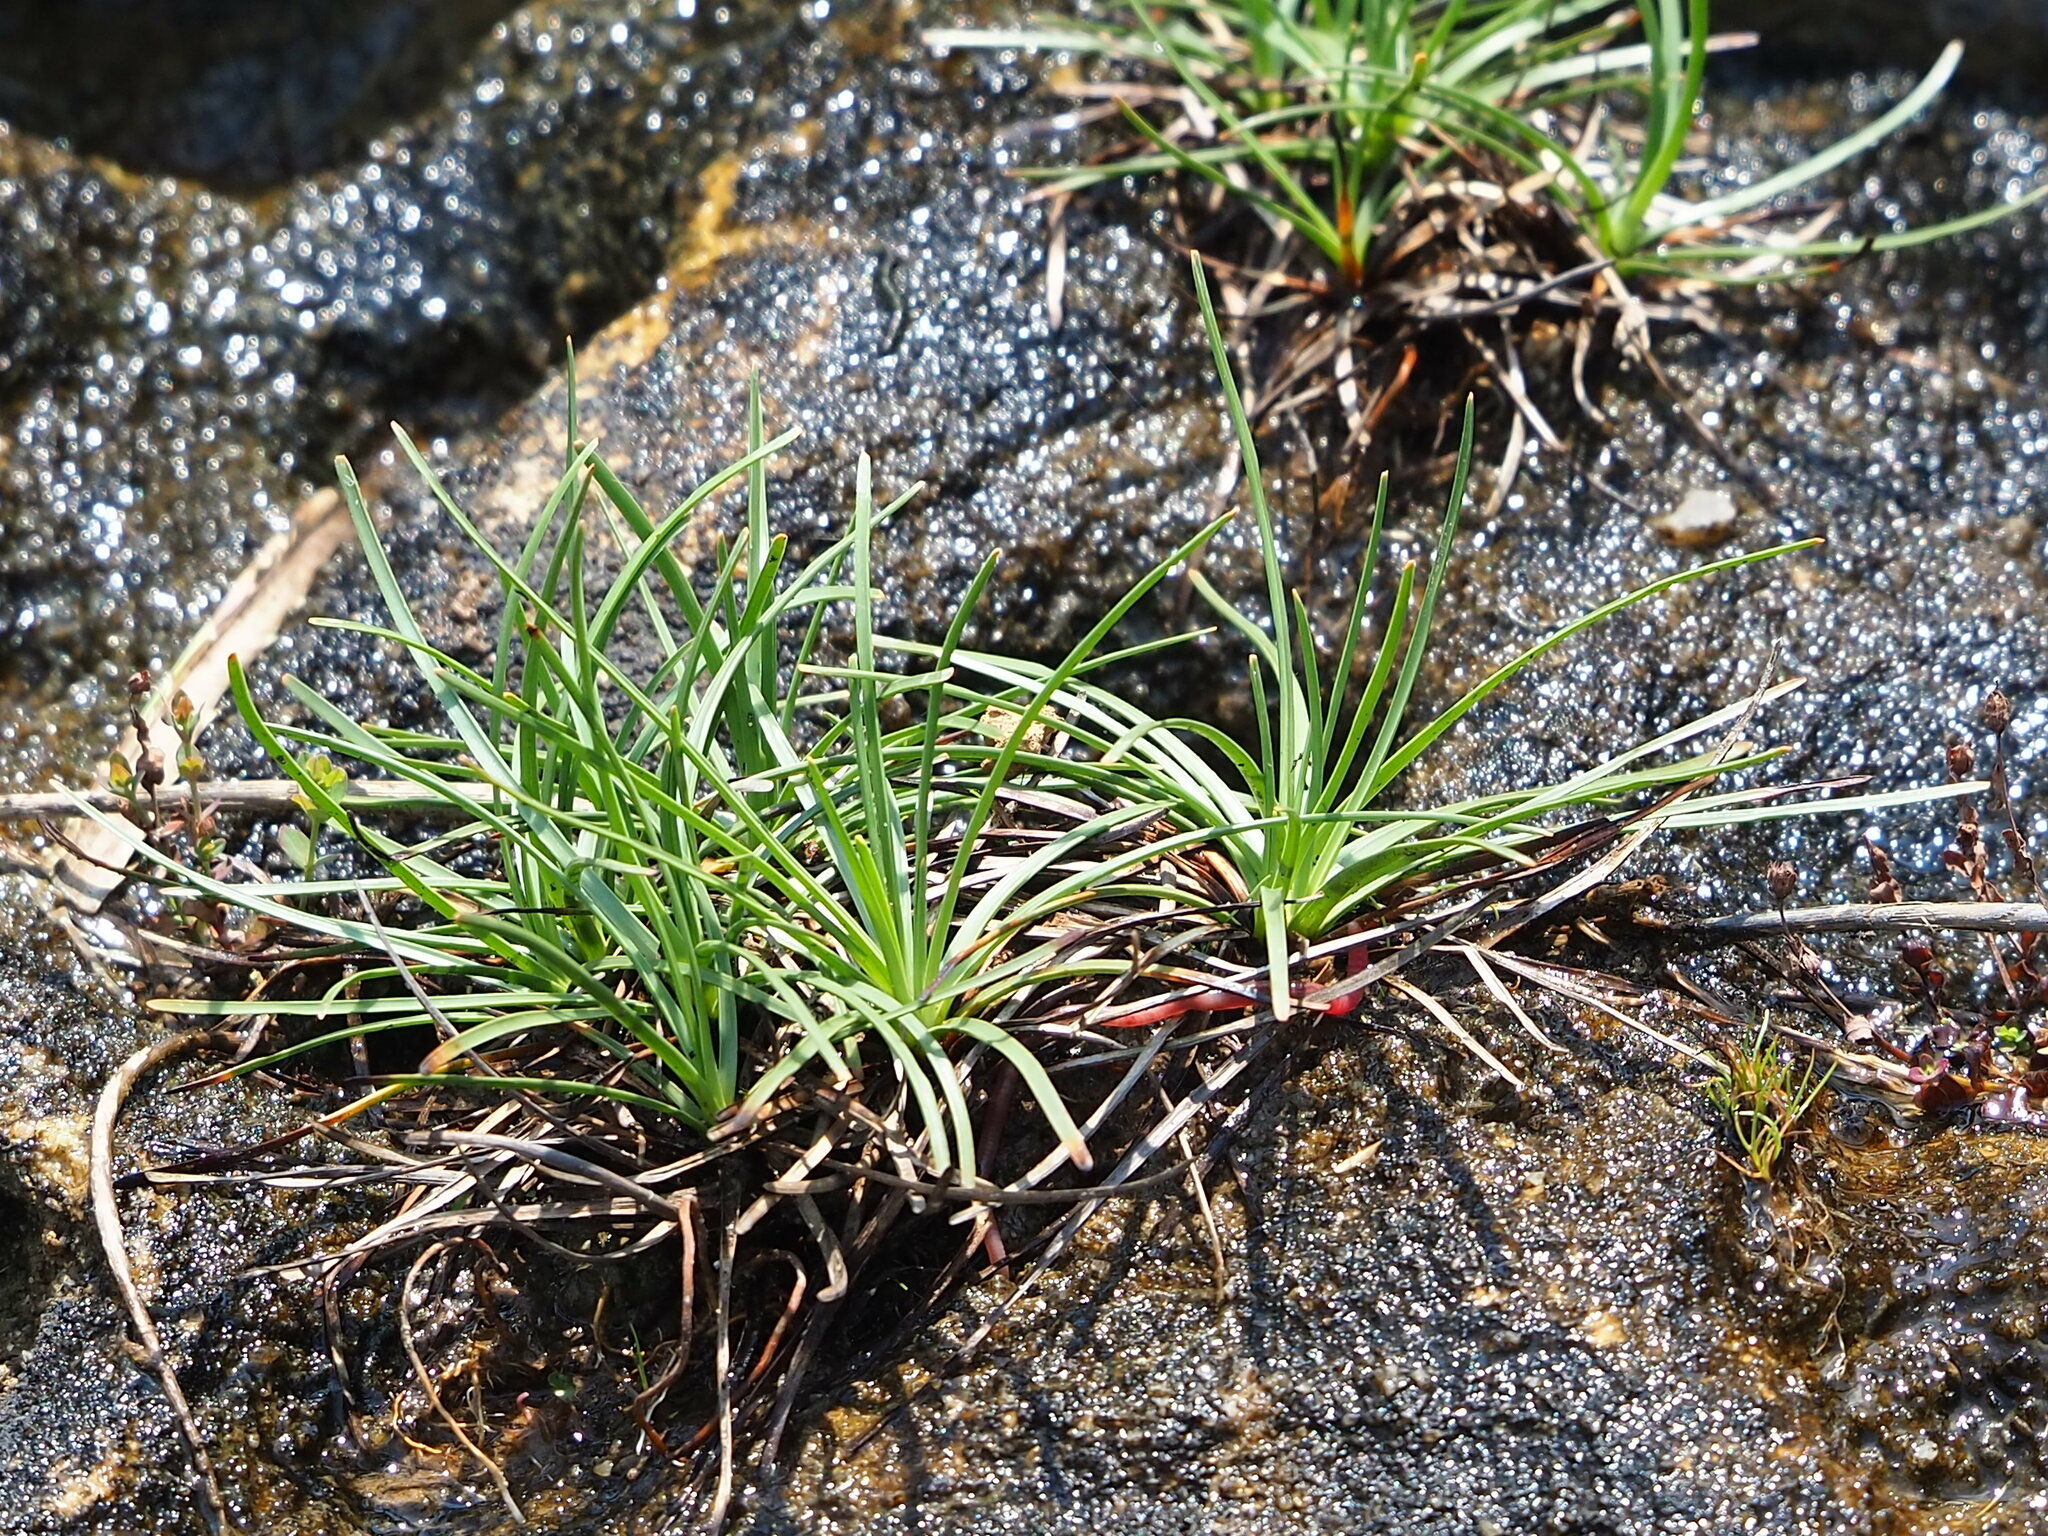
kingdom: Plantae
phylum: Tracheophyta
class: Liliopsida
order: Poales
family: Cyperaceae
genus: Fimbristylis
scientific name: Fimbristylis cymosa
